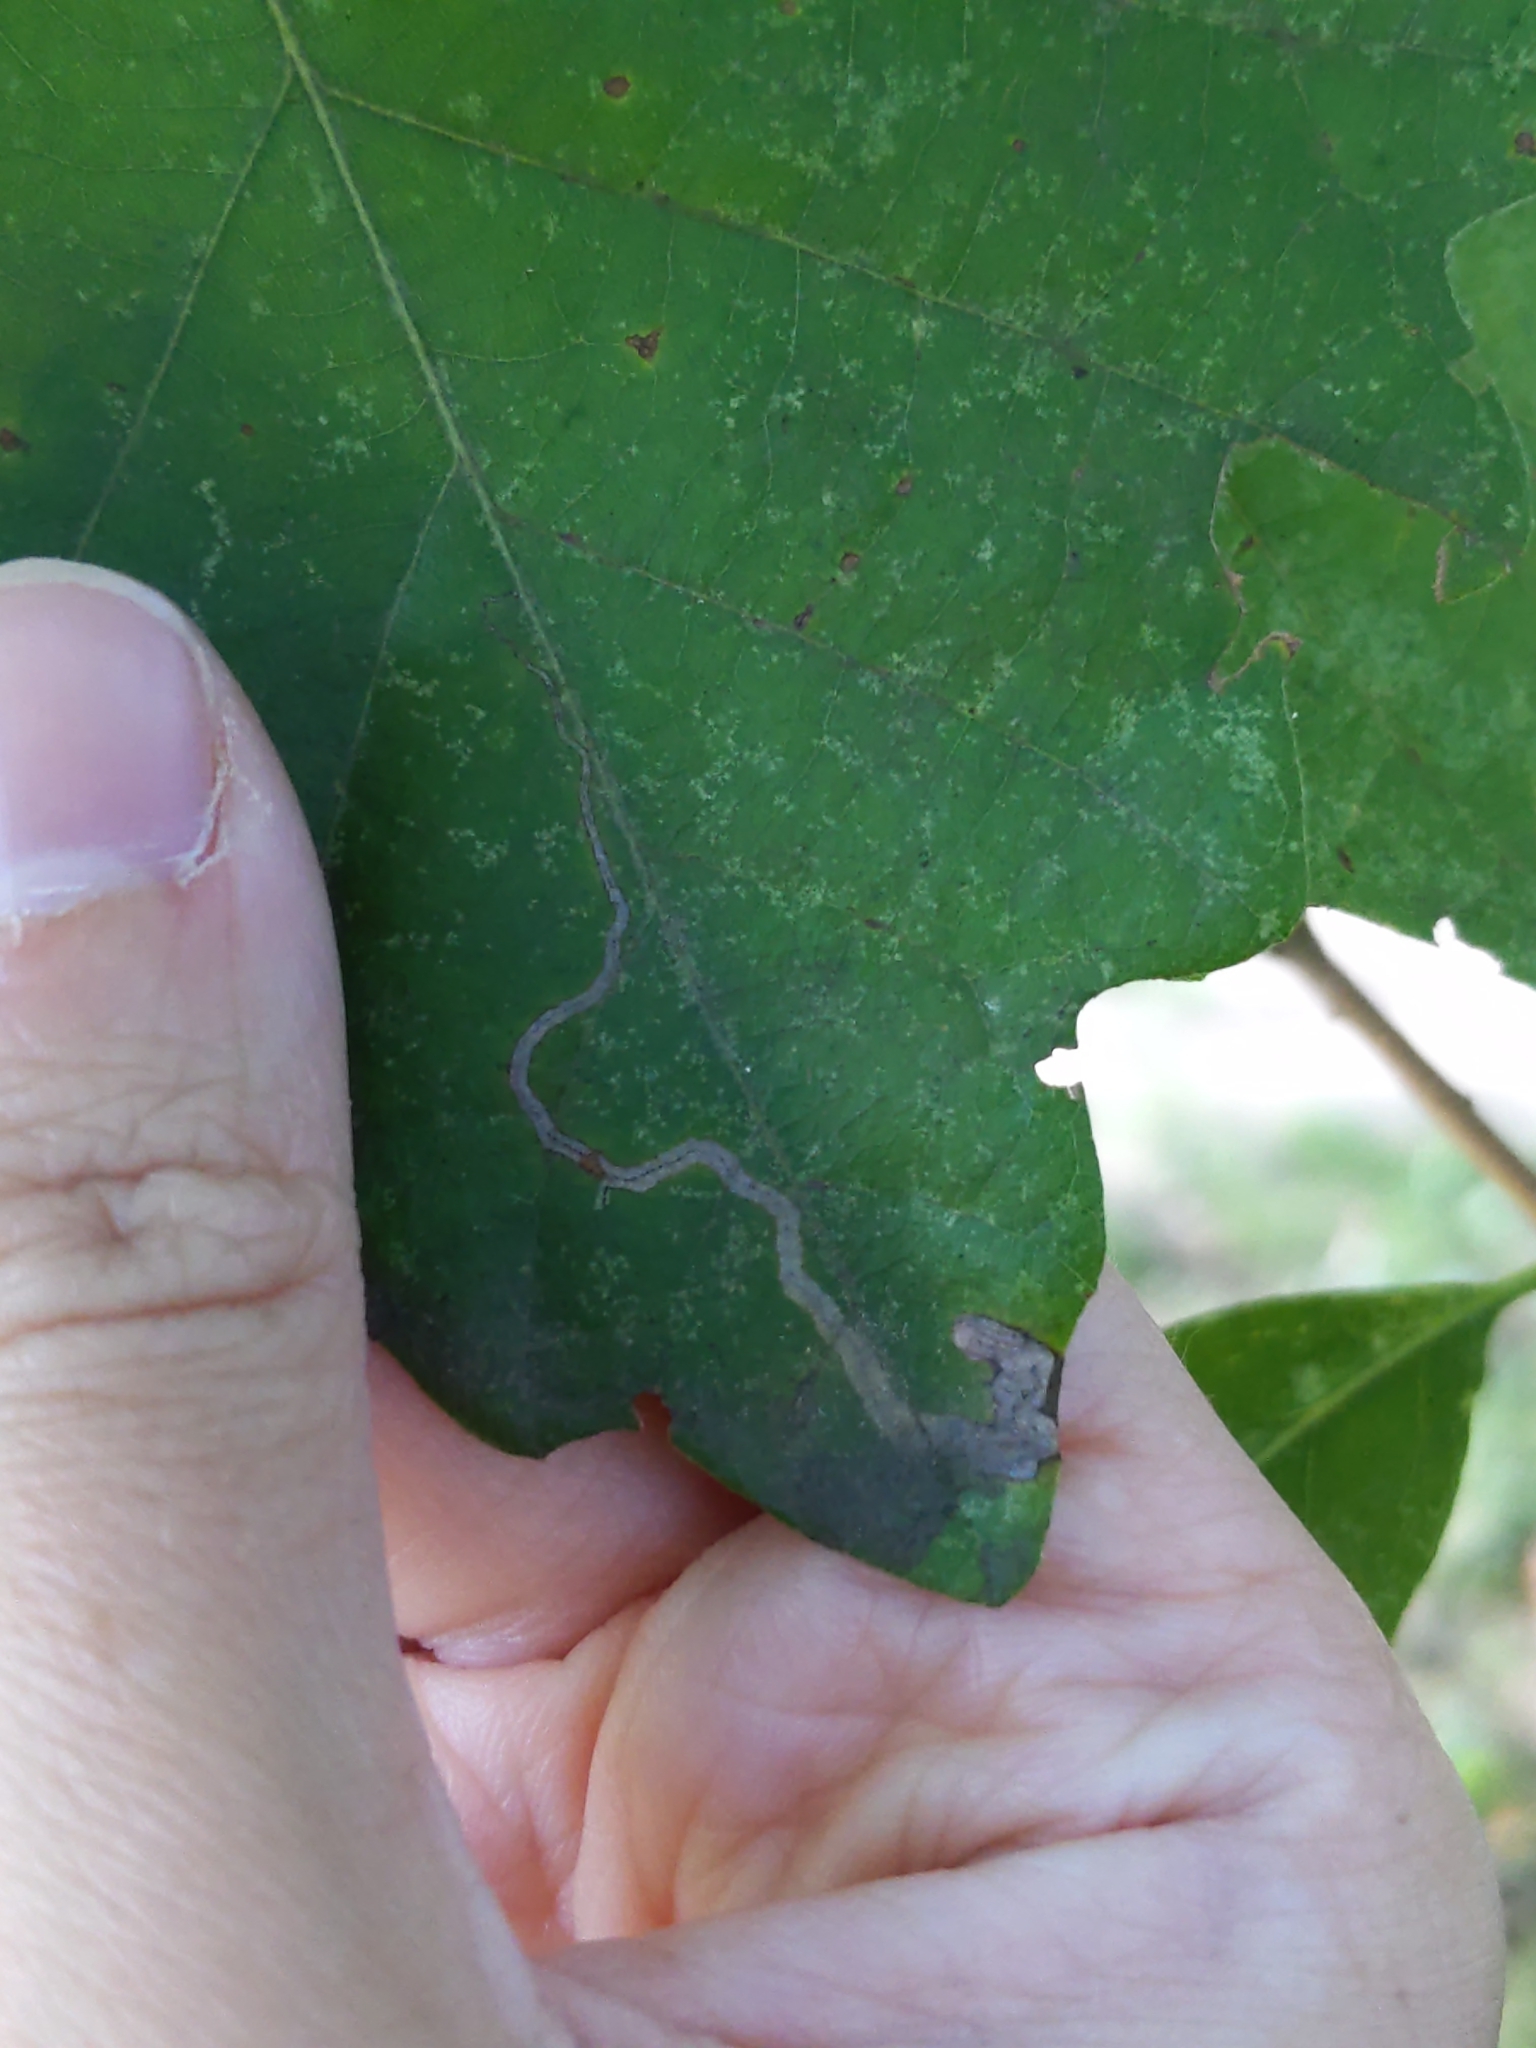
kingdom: Animalia
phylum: Arthropoda
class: Insecta
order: Lepidoptera
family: Nepticulidae
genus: Stigmella
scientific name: Stigmella
